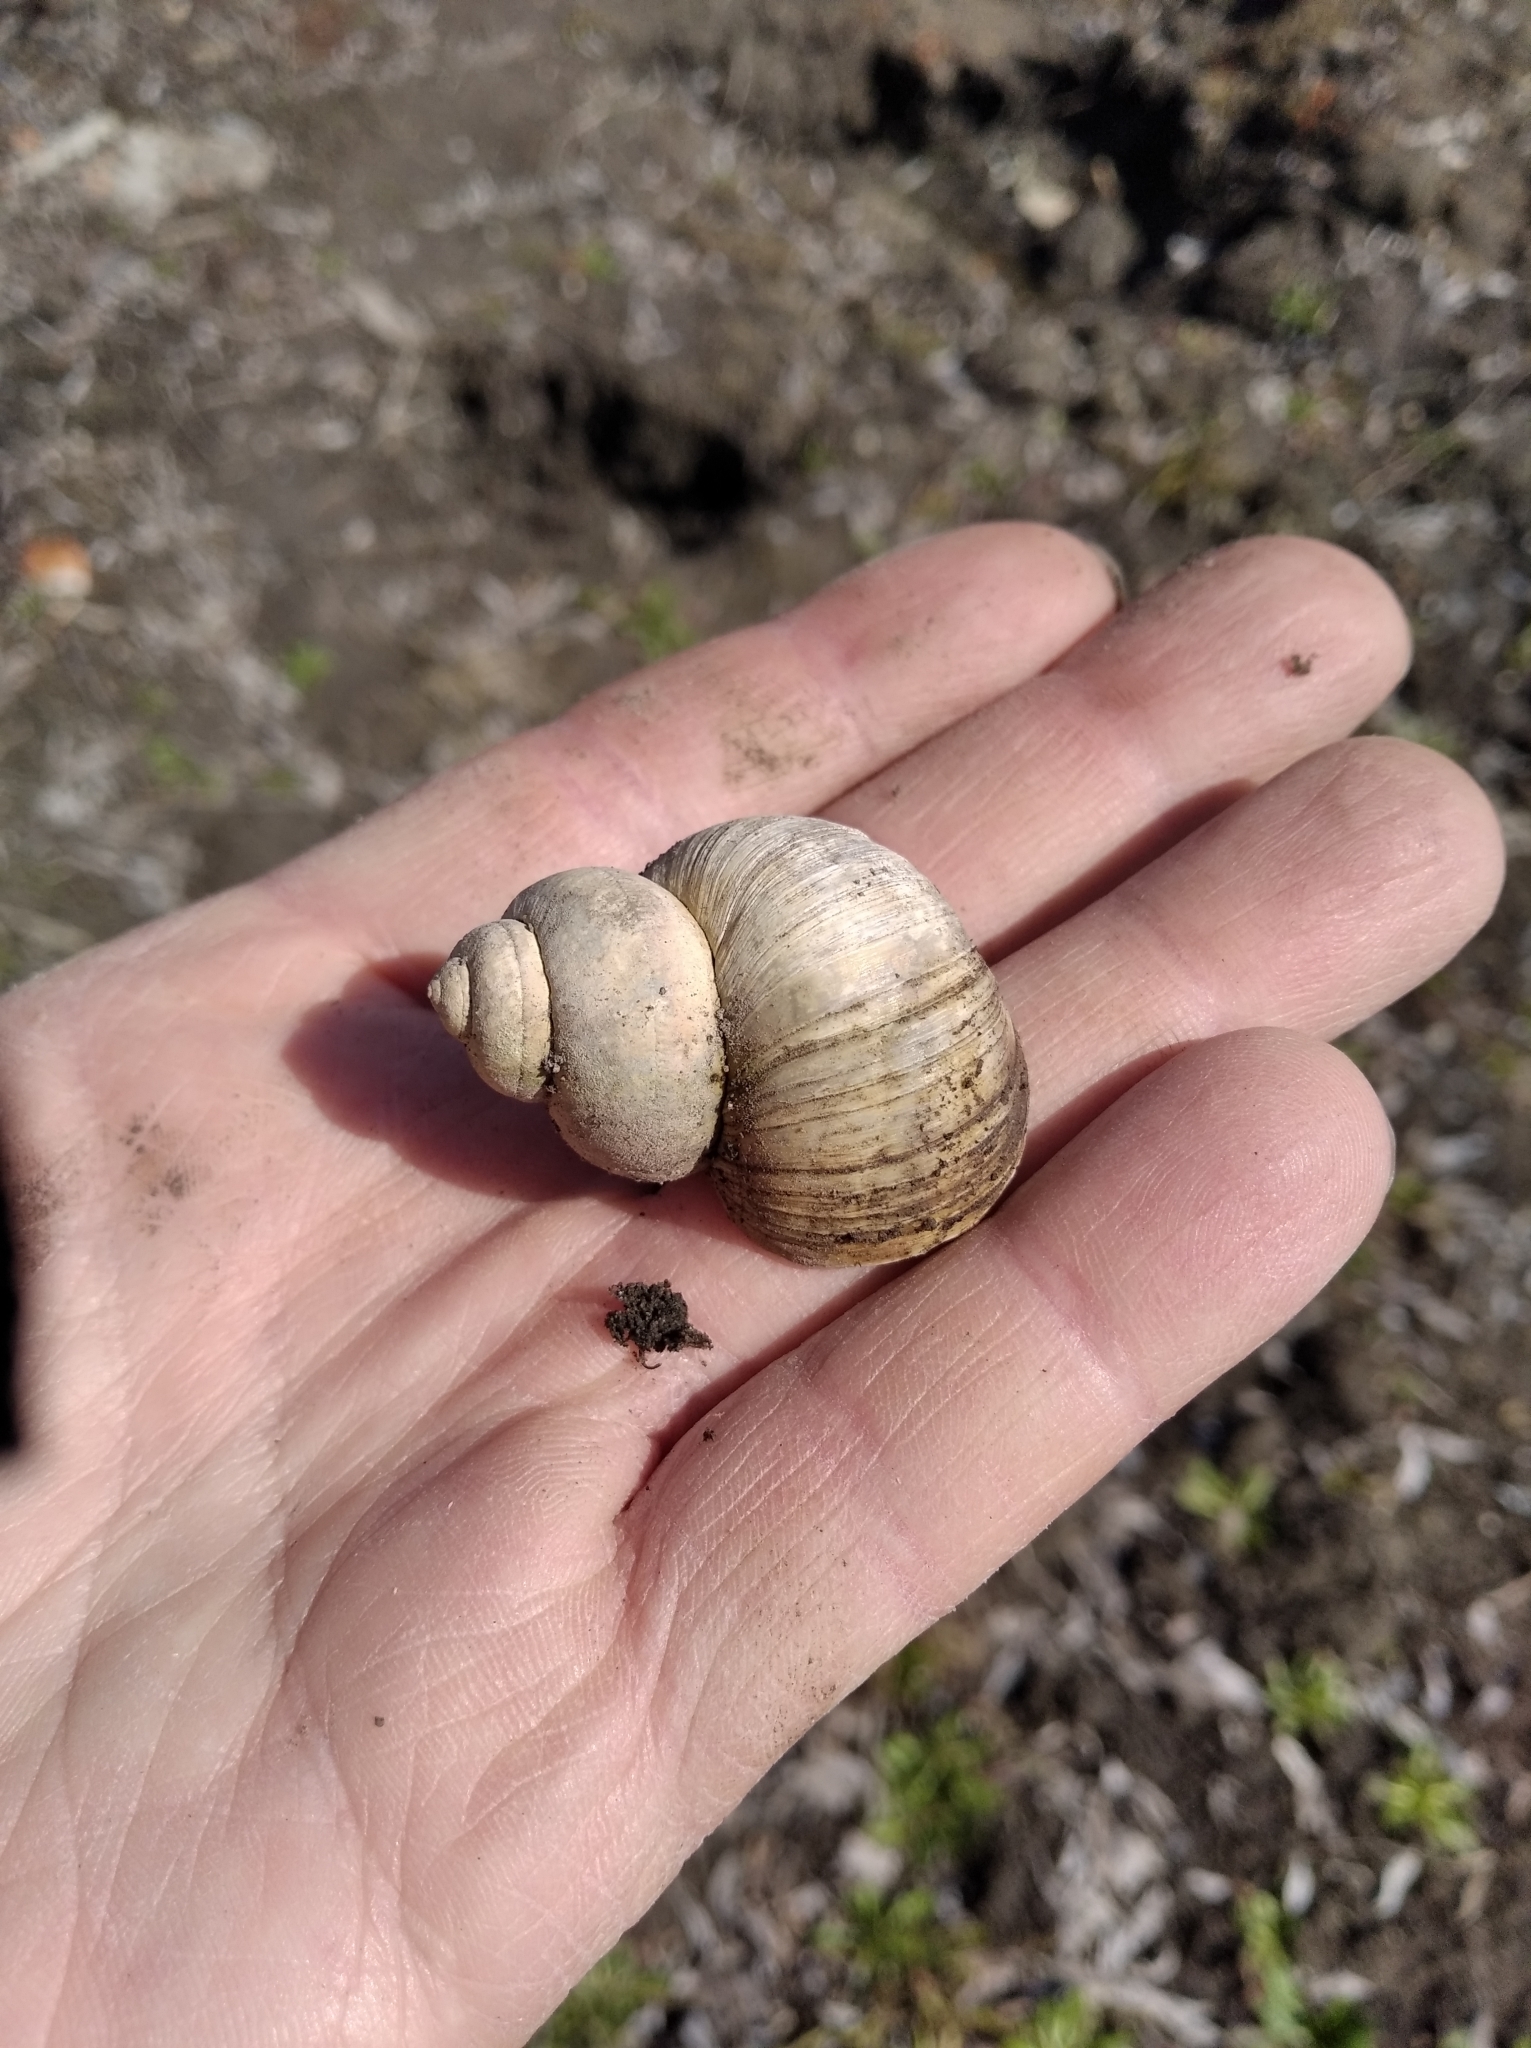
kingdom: Animalia
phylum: Mollusca
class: Gastropoda
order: Architaenioglossa
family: Viviparidae
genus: Viviparus
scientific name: Viviparus contectus
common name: Lister's river snail
